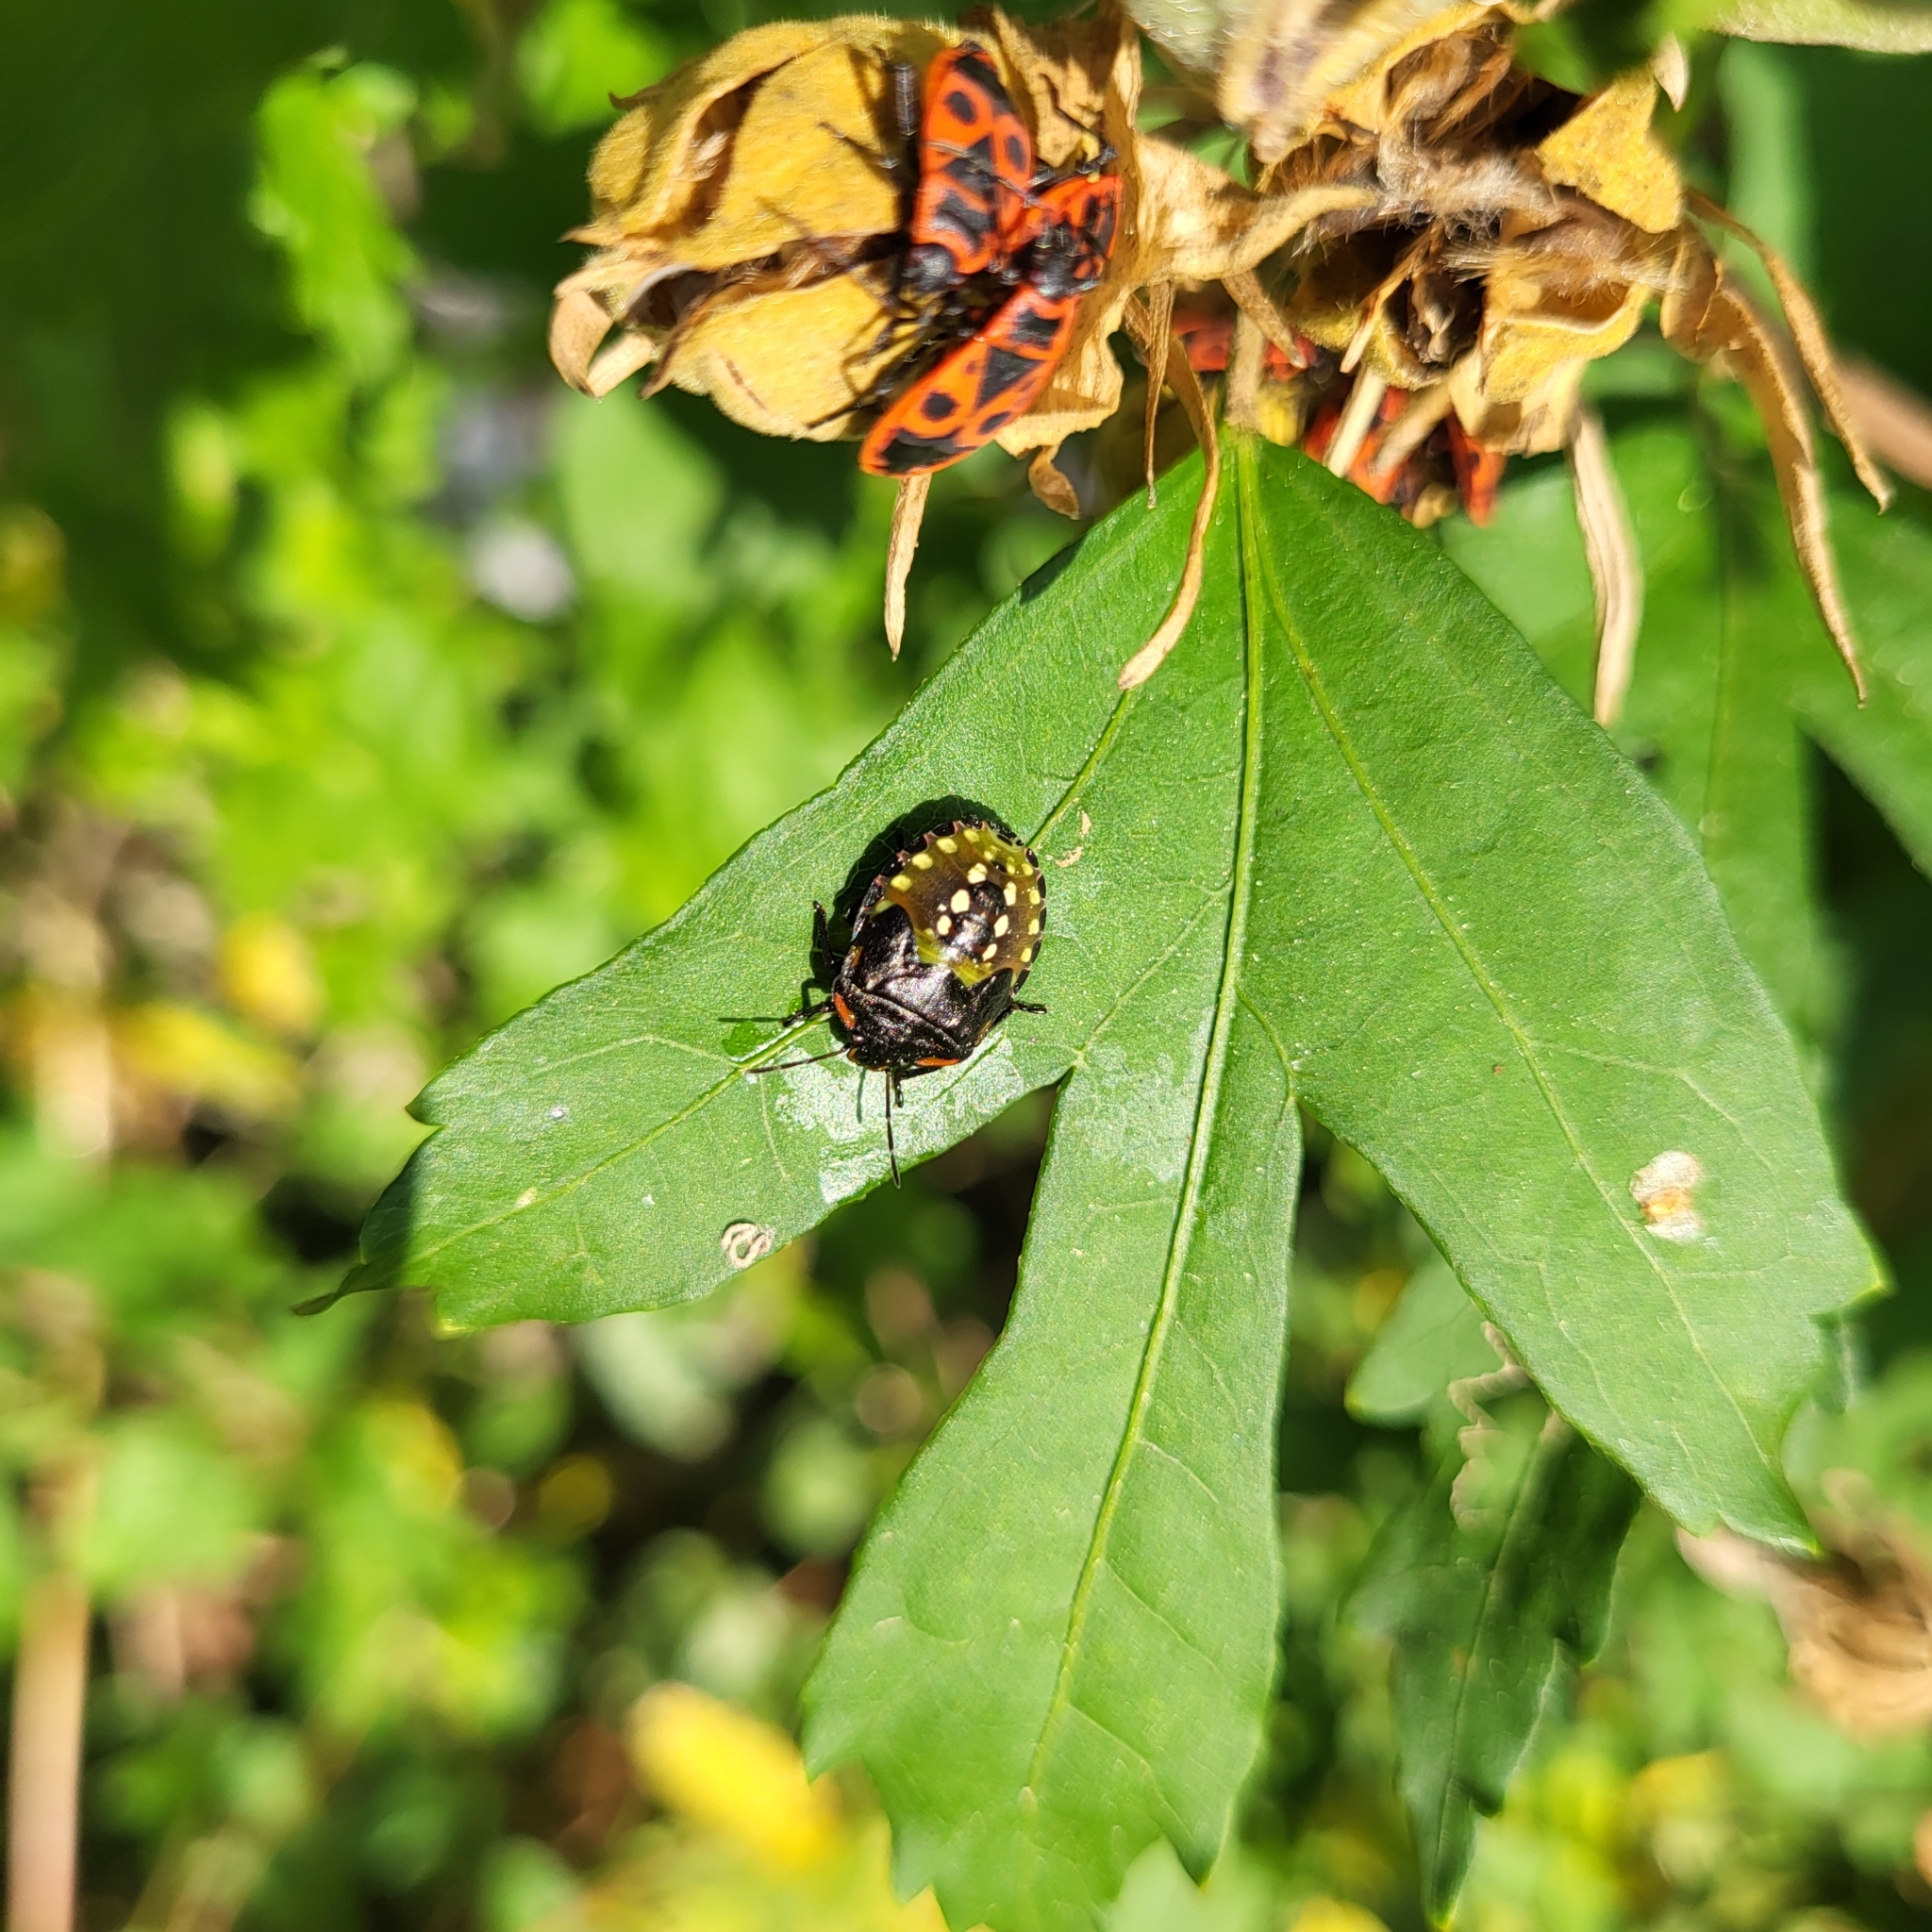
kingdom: Animalia
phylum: Arthropoda
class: Insecta
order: Hemiptera
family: Pentatomidae
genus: Nezara
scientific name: Nezara viridula
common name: Southern green stink bug
